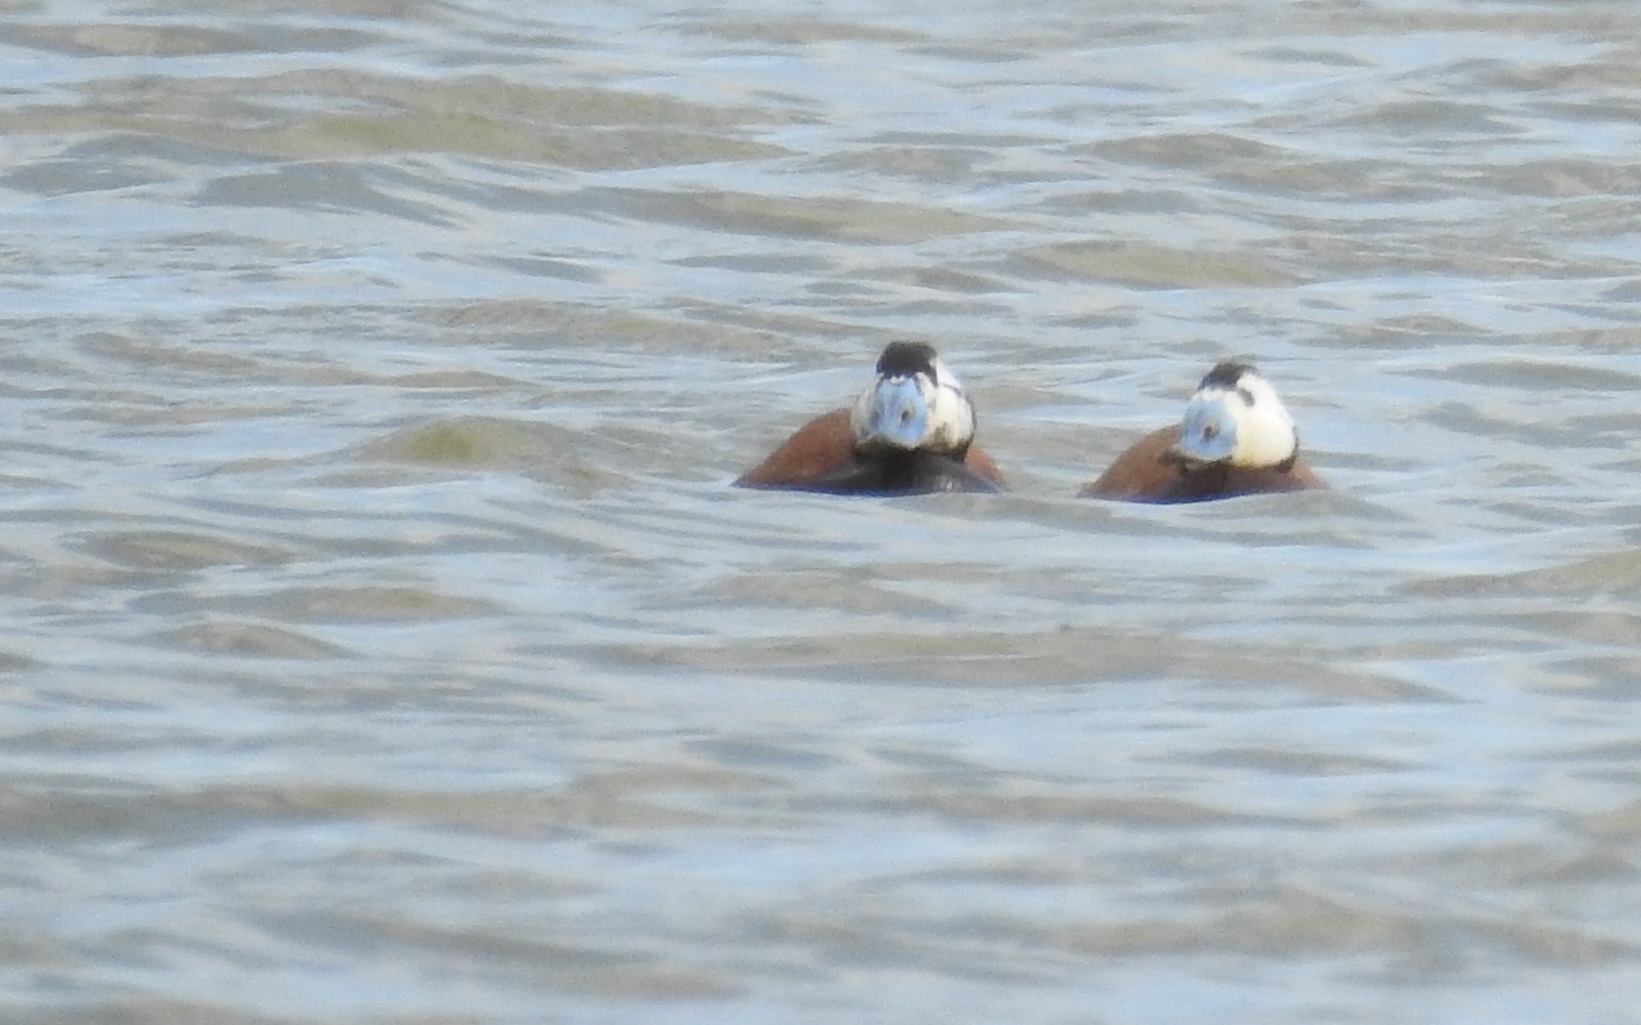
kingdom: Animalia
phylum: Chordata
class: Aves
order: Anseriformes
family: Anatidae
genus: Oxyura
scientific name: Oxyura leucocephala
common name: White-headed duck
